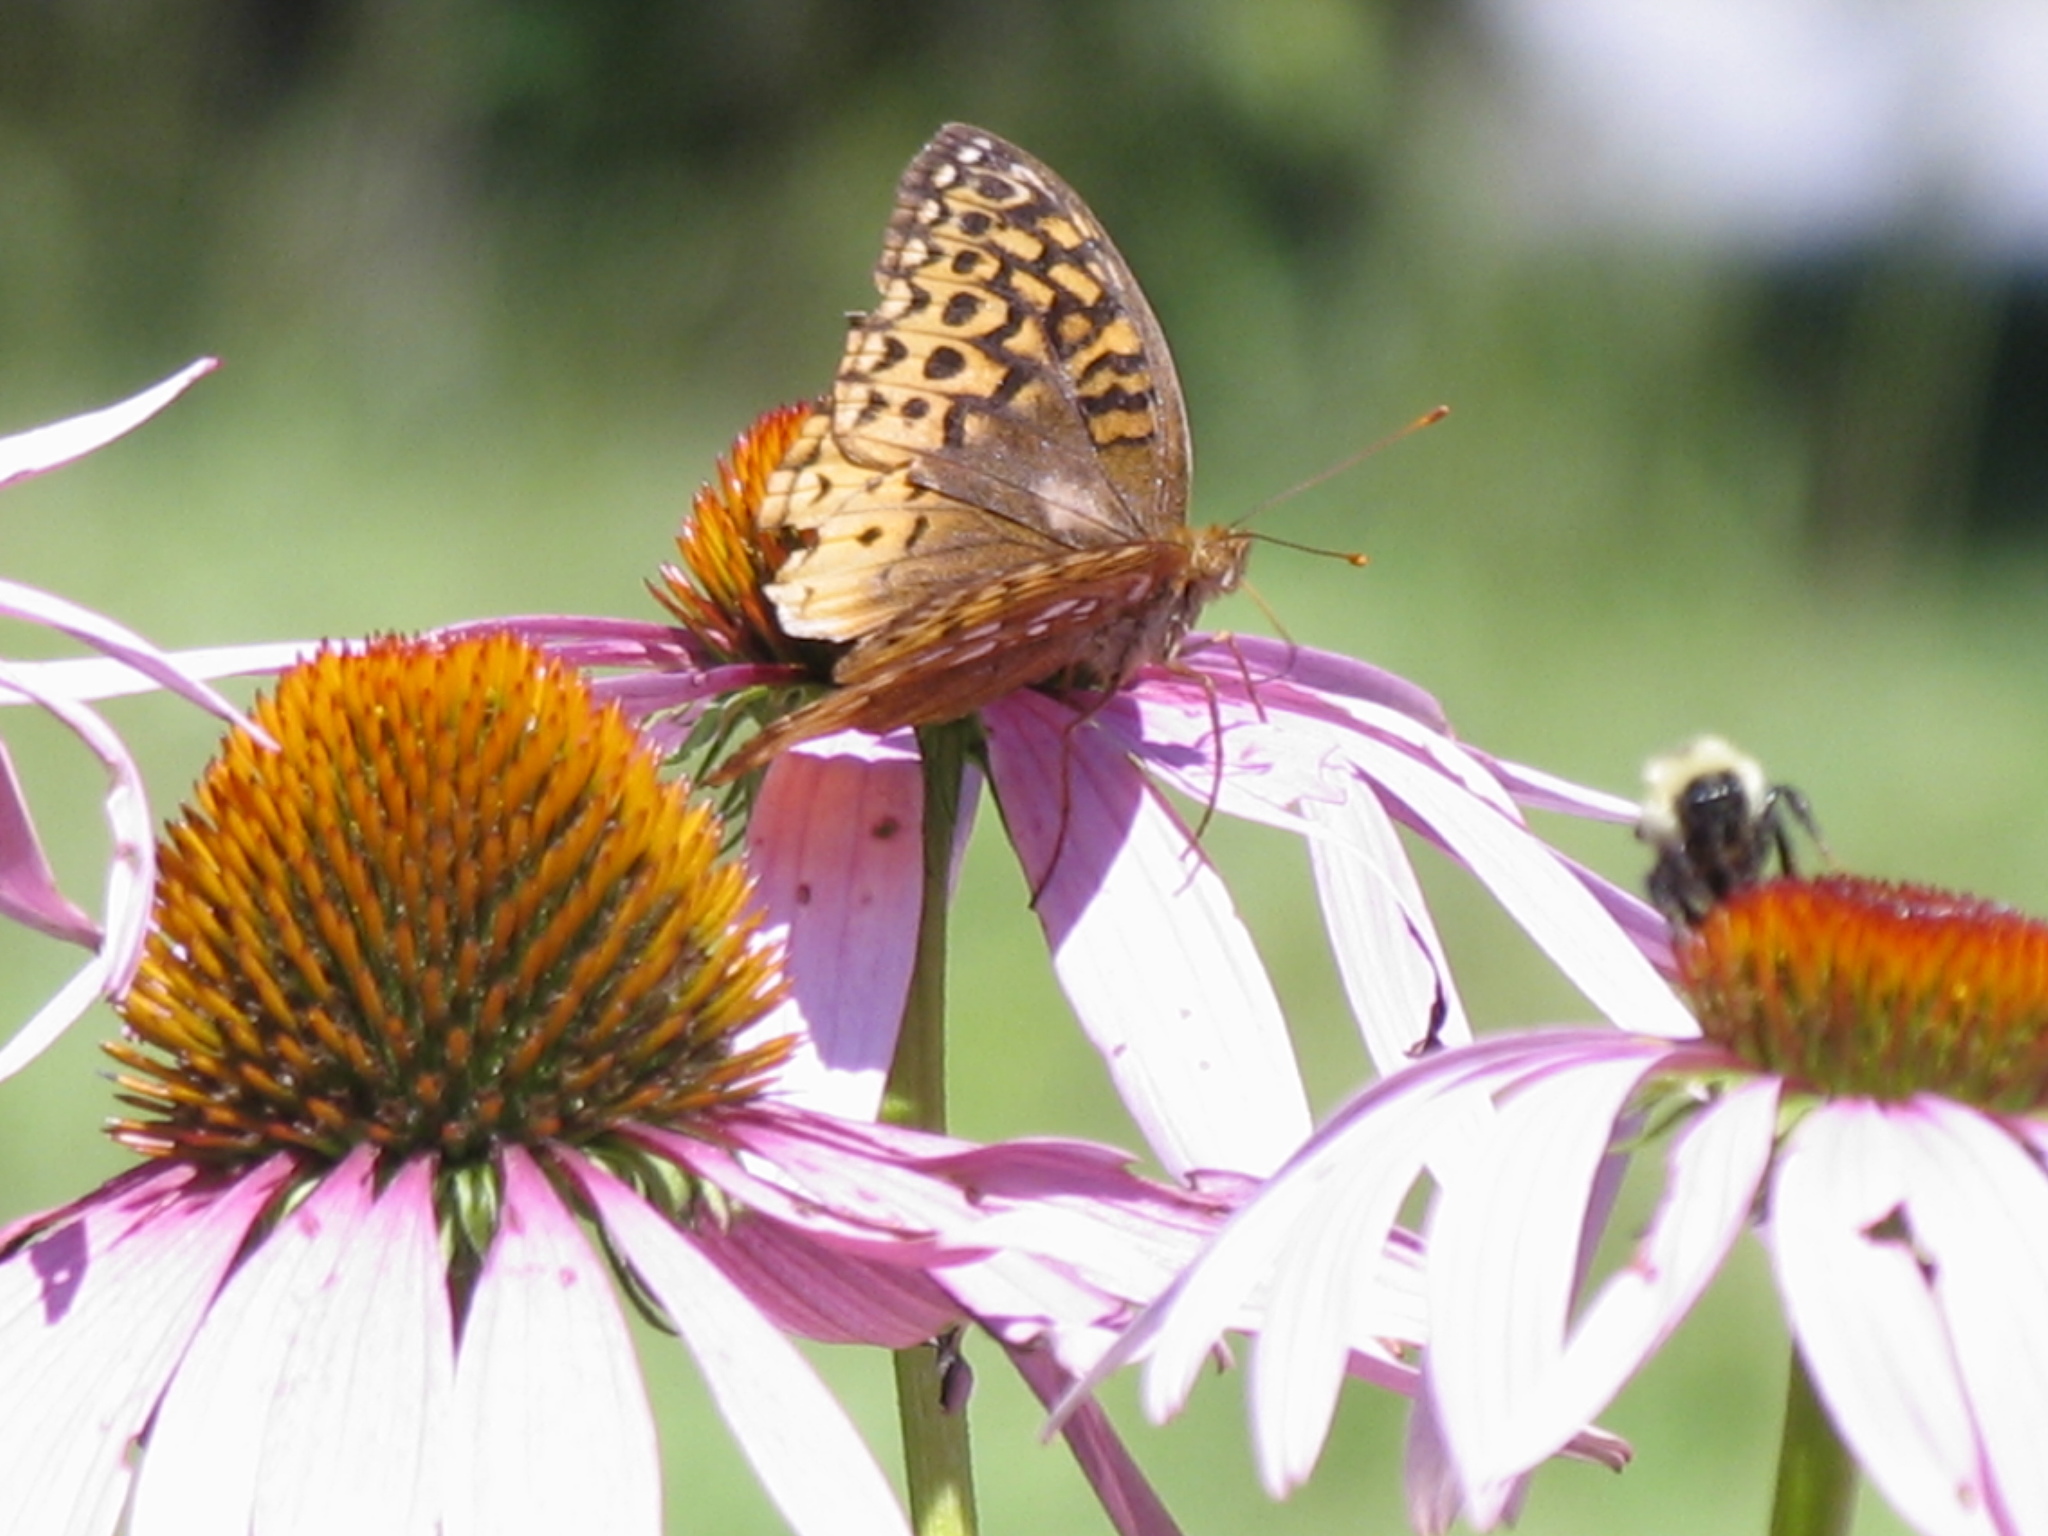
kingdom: Animalia
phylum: Arthropoda
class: Insecta
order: Lepidoptera
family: Nymphalidae
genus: Speyeria
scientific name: Speyeria cybele
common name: Great spangled fritillary
